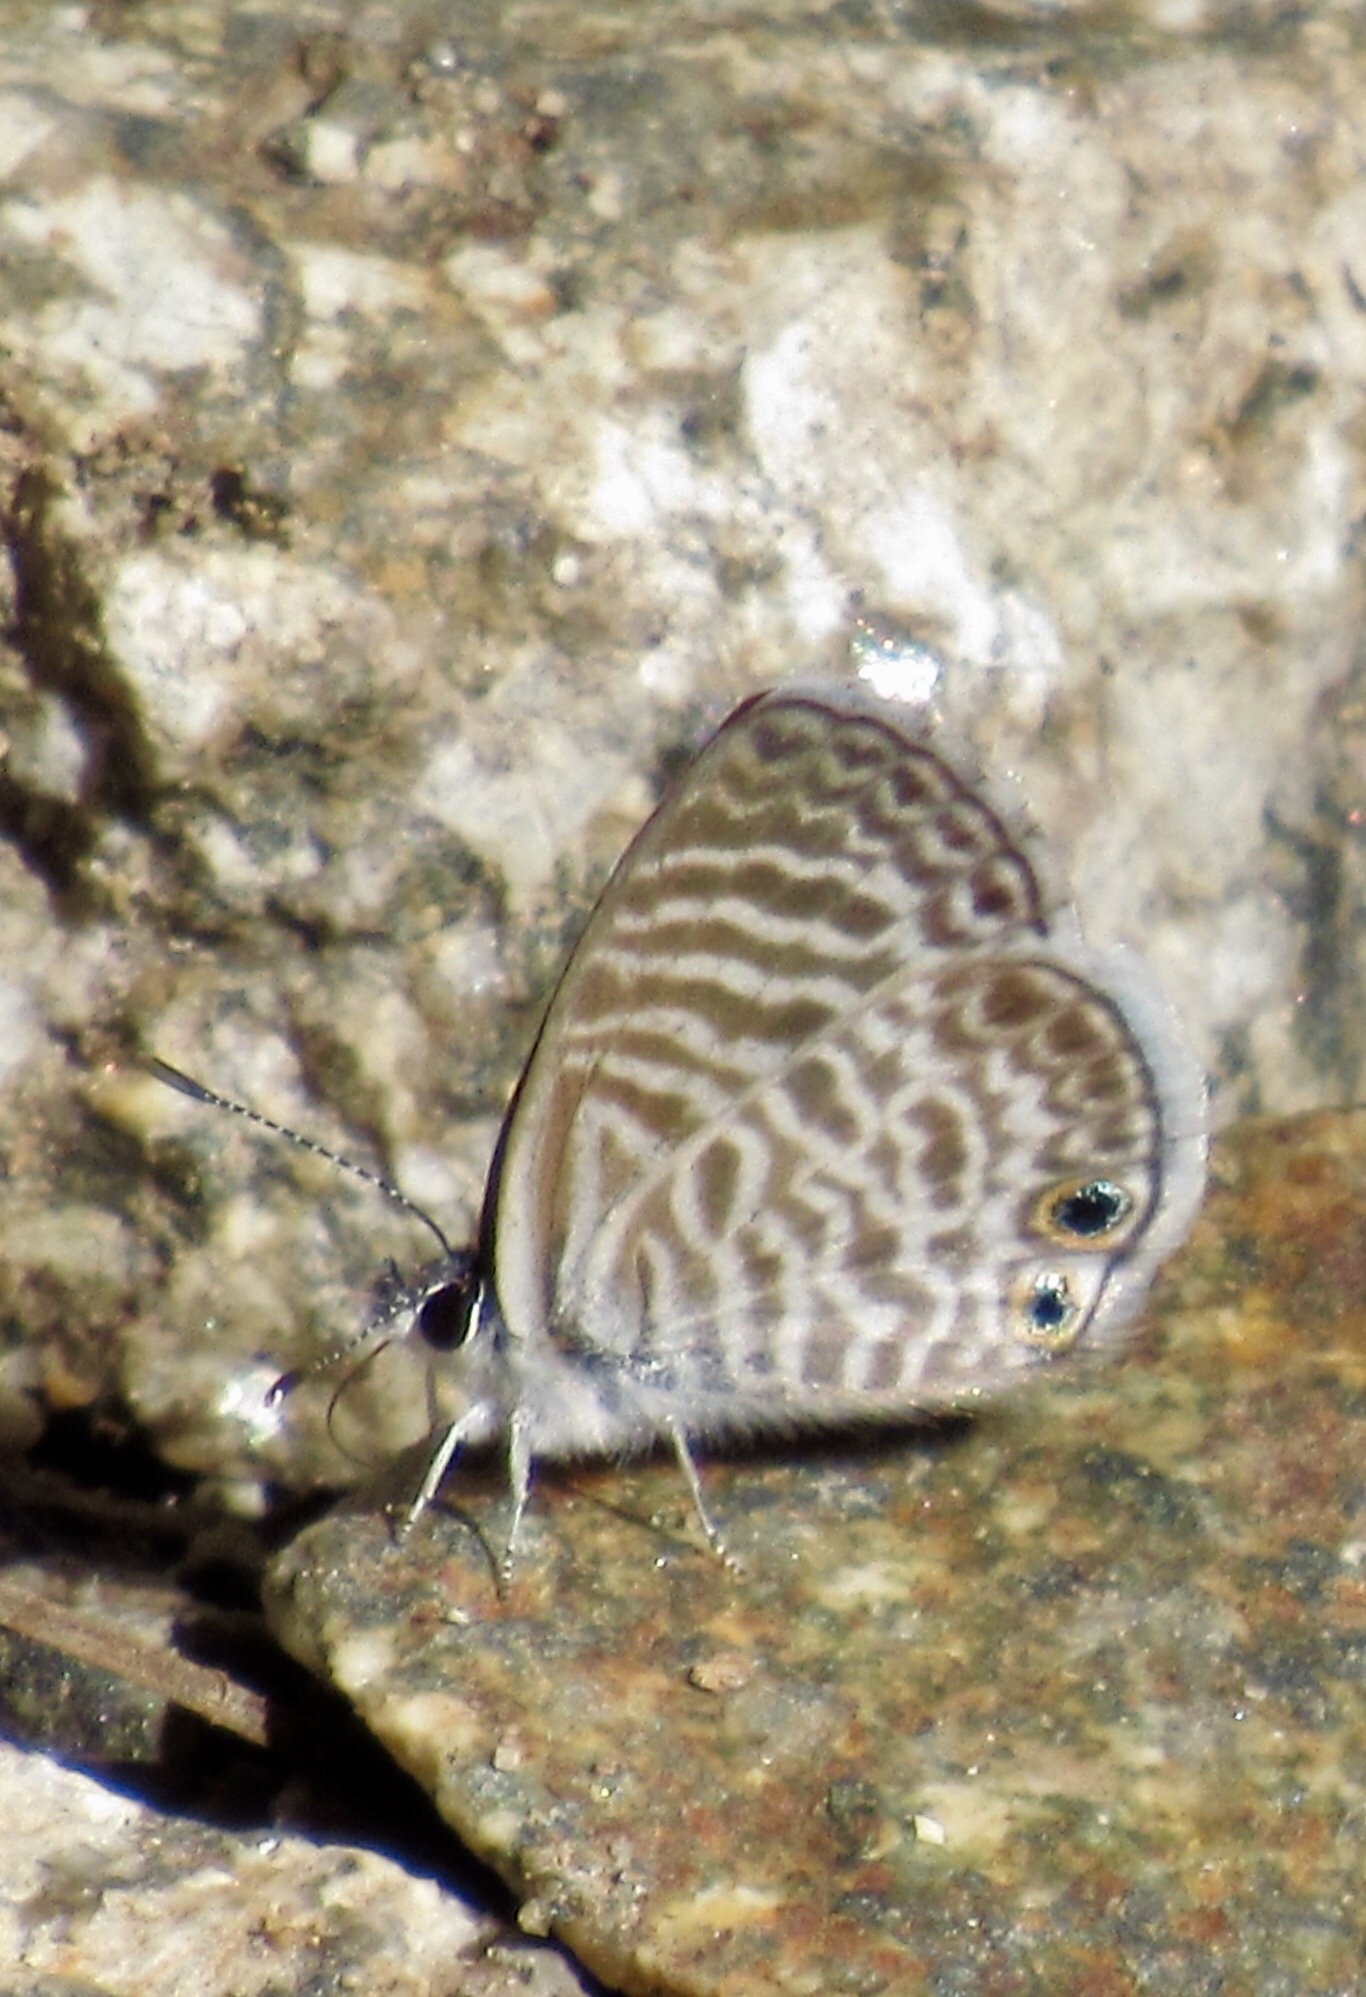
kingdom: Animalia
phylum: Arthropoda
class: Insecta
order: Lepidoptera
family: Lycaenidae
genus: Leptotes
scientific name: Leptotes marina
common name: Marine blue
